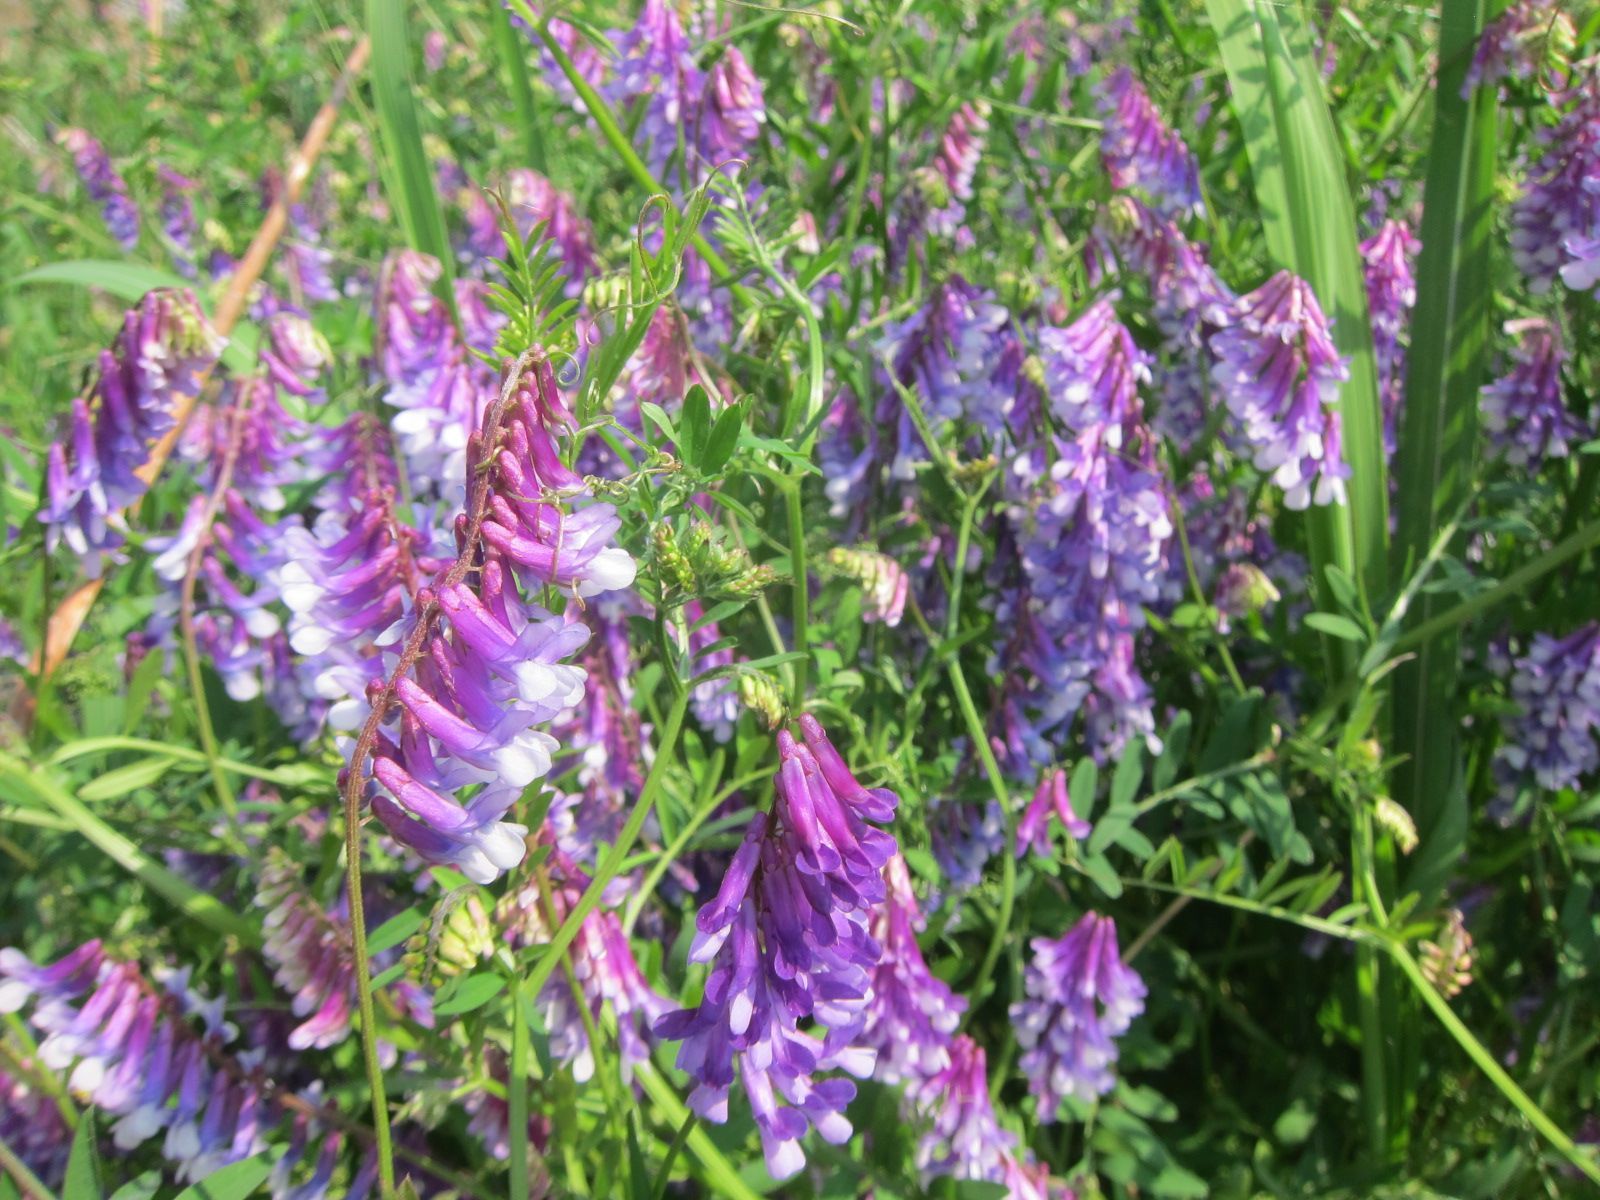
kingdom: Plantae
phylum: Tracheophyta
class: Magnoliopsida
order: Fabales
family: Fabaceae
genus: Vicia
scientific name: Vicia villosa
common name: Fodder vetch
